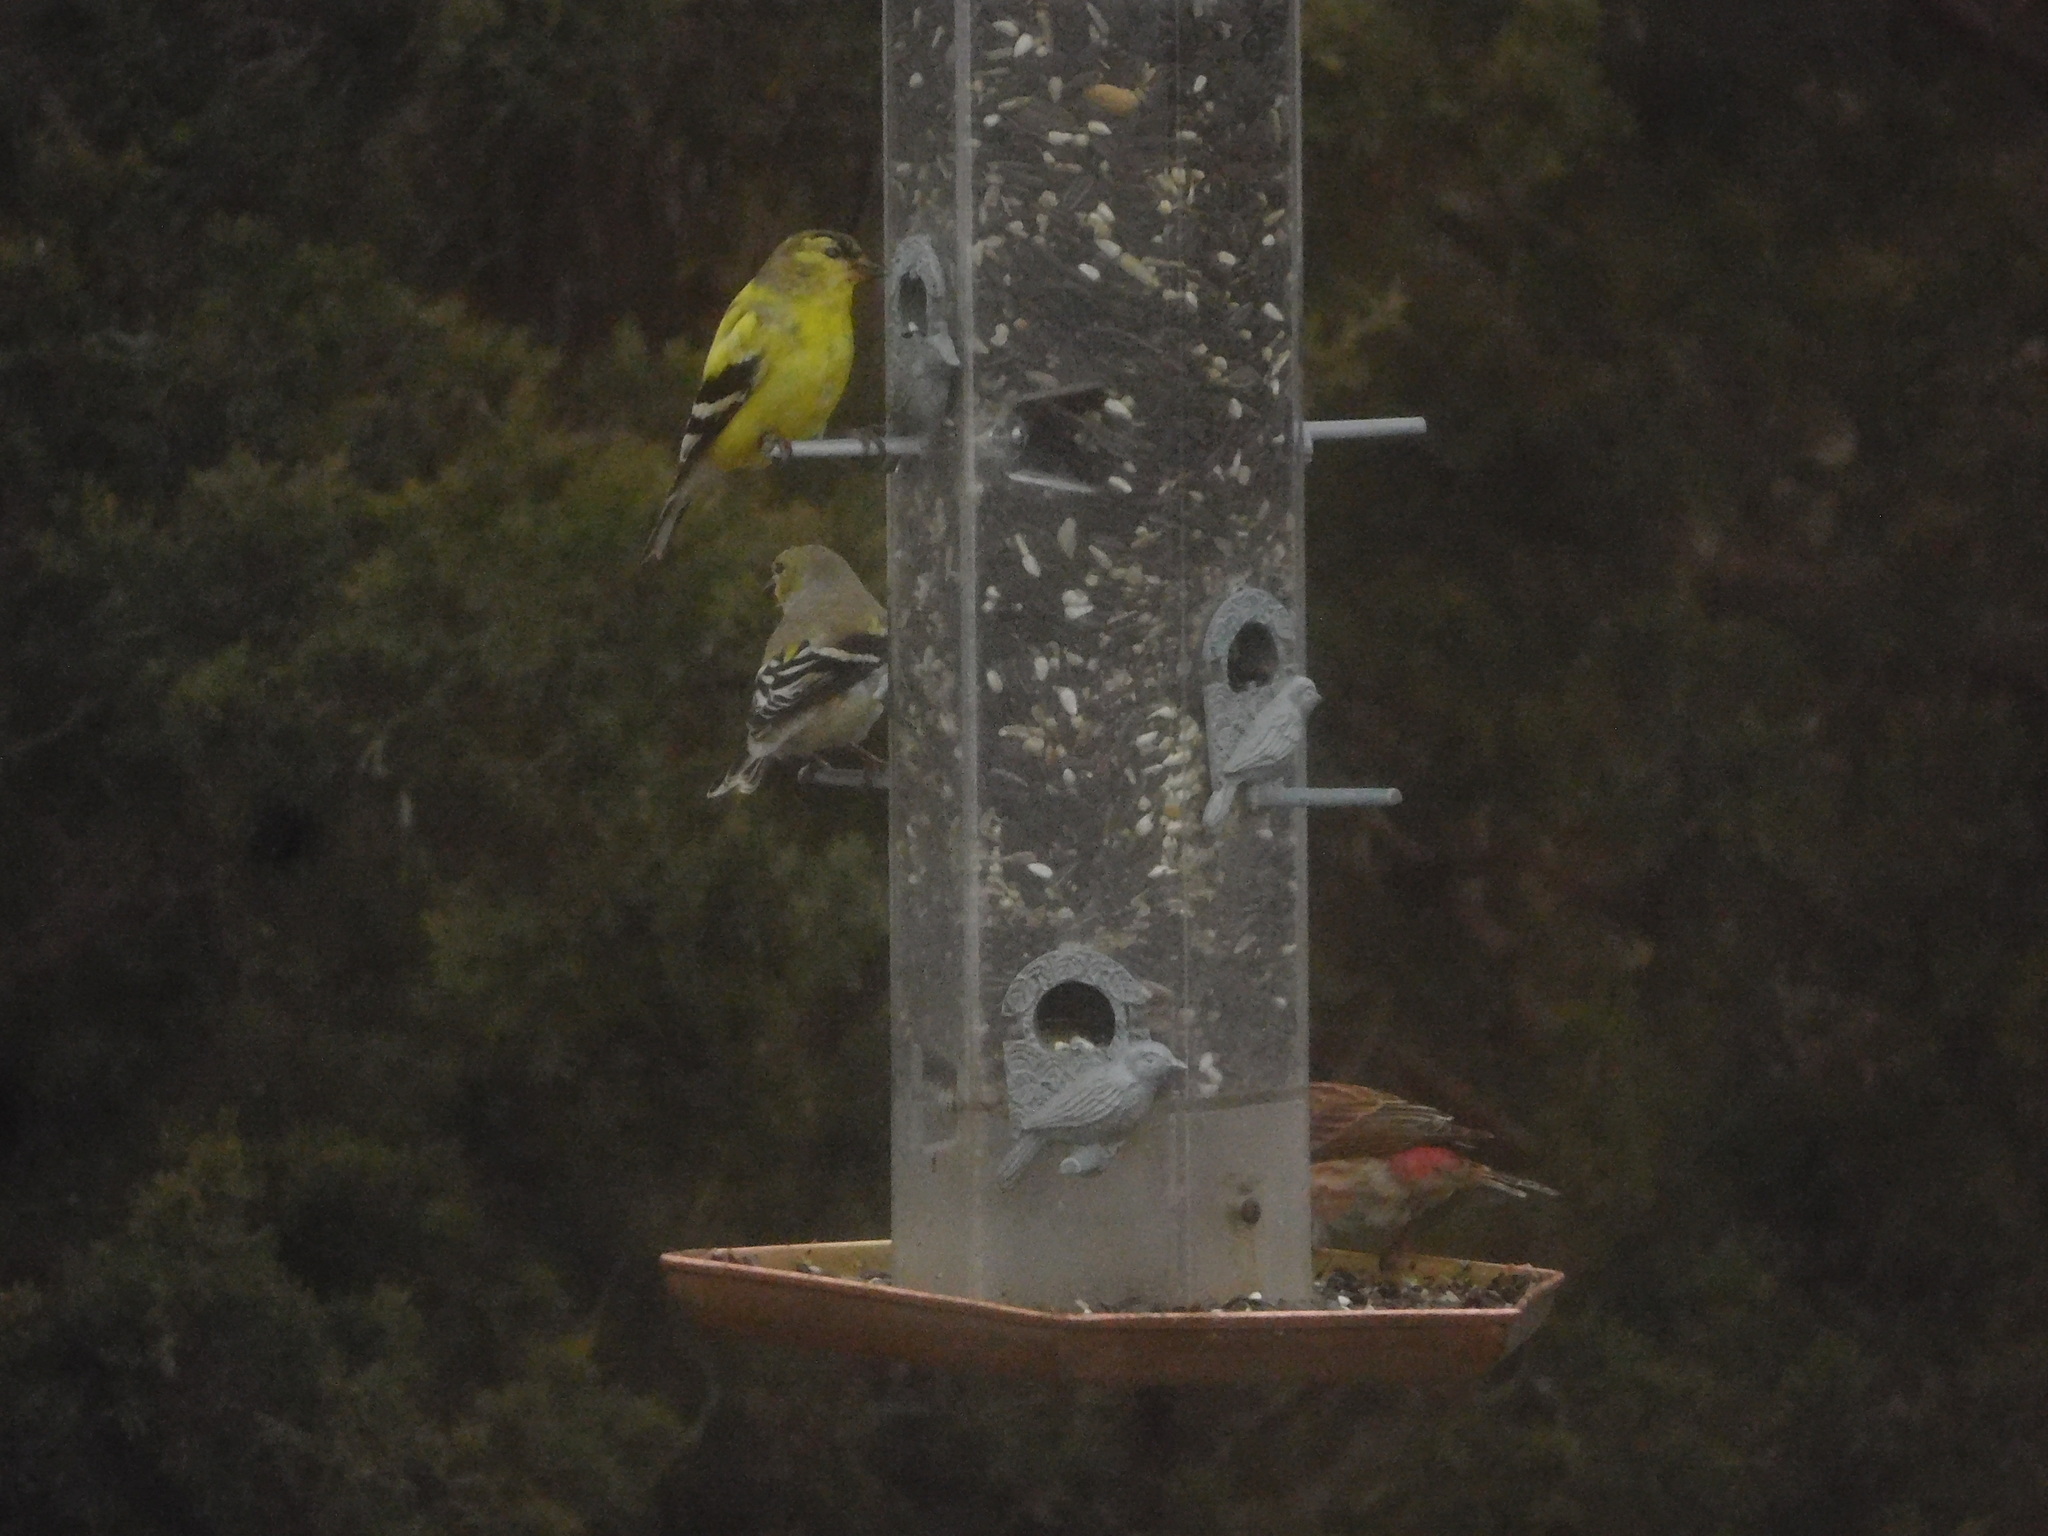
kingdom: Animalia
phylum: Chordata
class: Aves
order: Passeriformes
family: Fringillidae
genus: Spinus
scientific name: Spinus tristis
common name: American goldfinch
